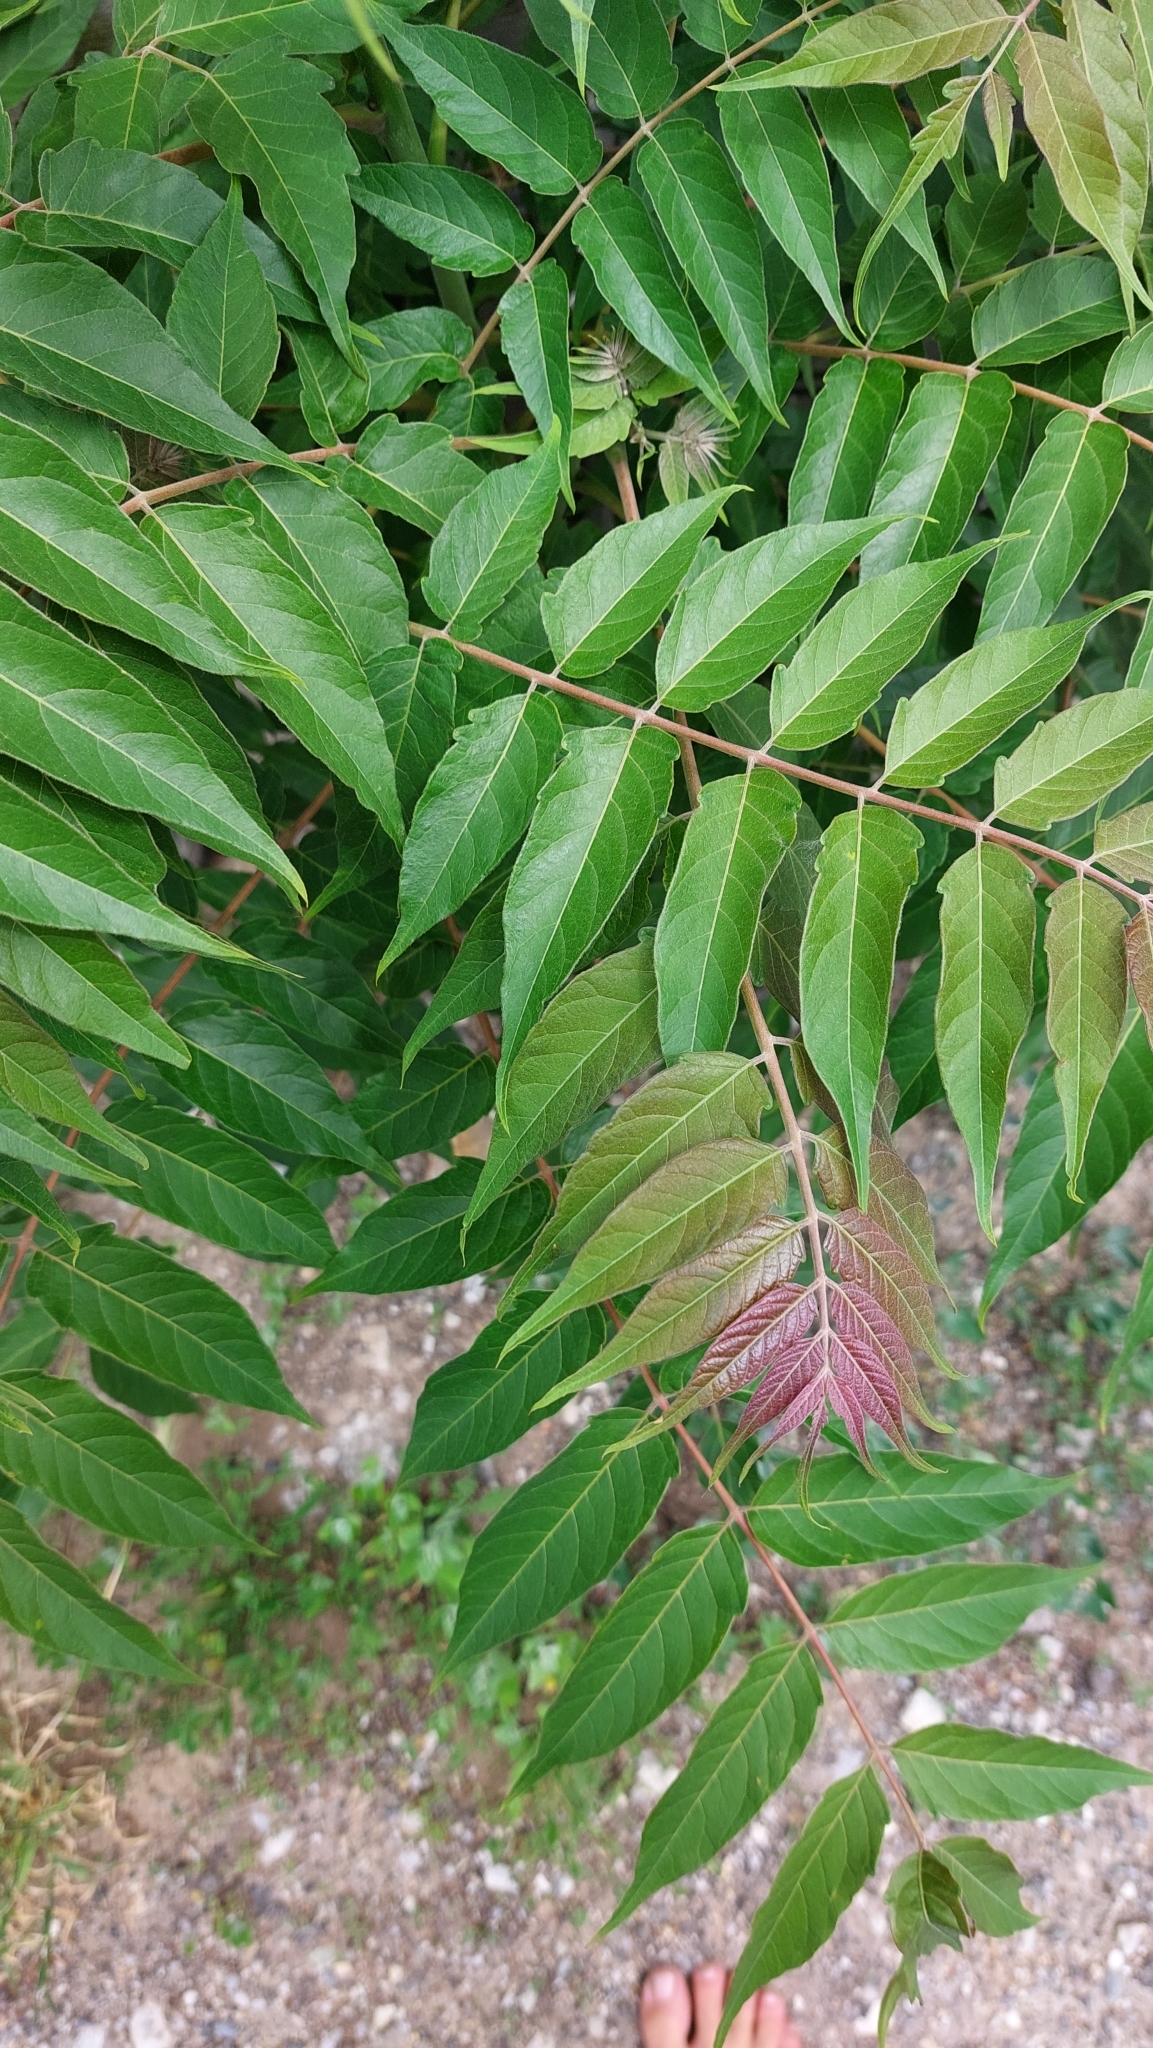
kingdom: Plantae
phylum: Tracheophyta
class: Magnoliopsida
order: Sapindales
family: Simaroubaceae
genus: Ailanthus
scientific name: Ailanthus altissima
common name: Tree-of-heaven
